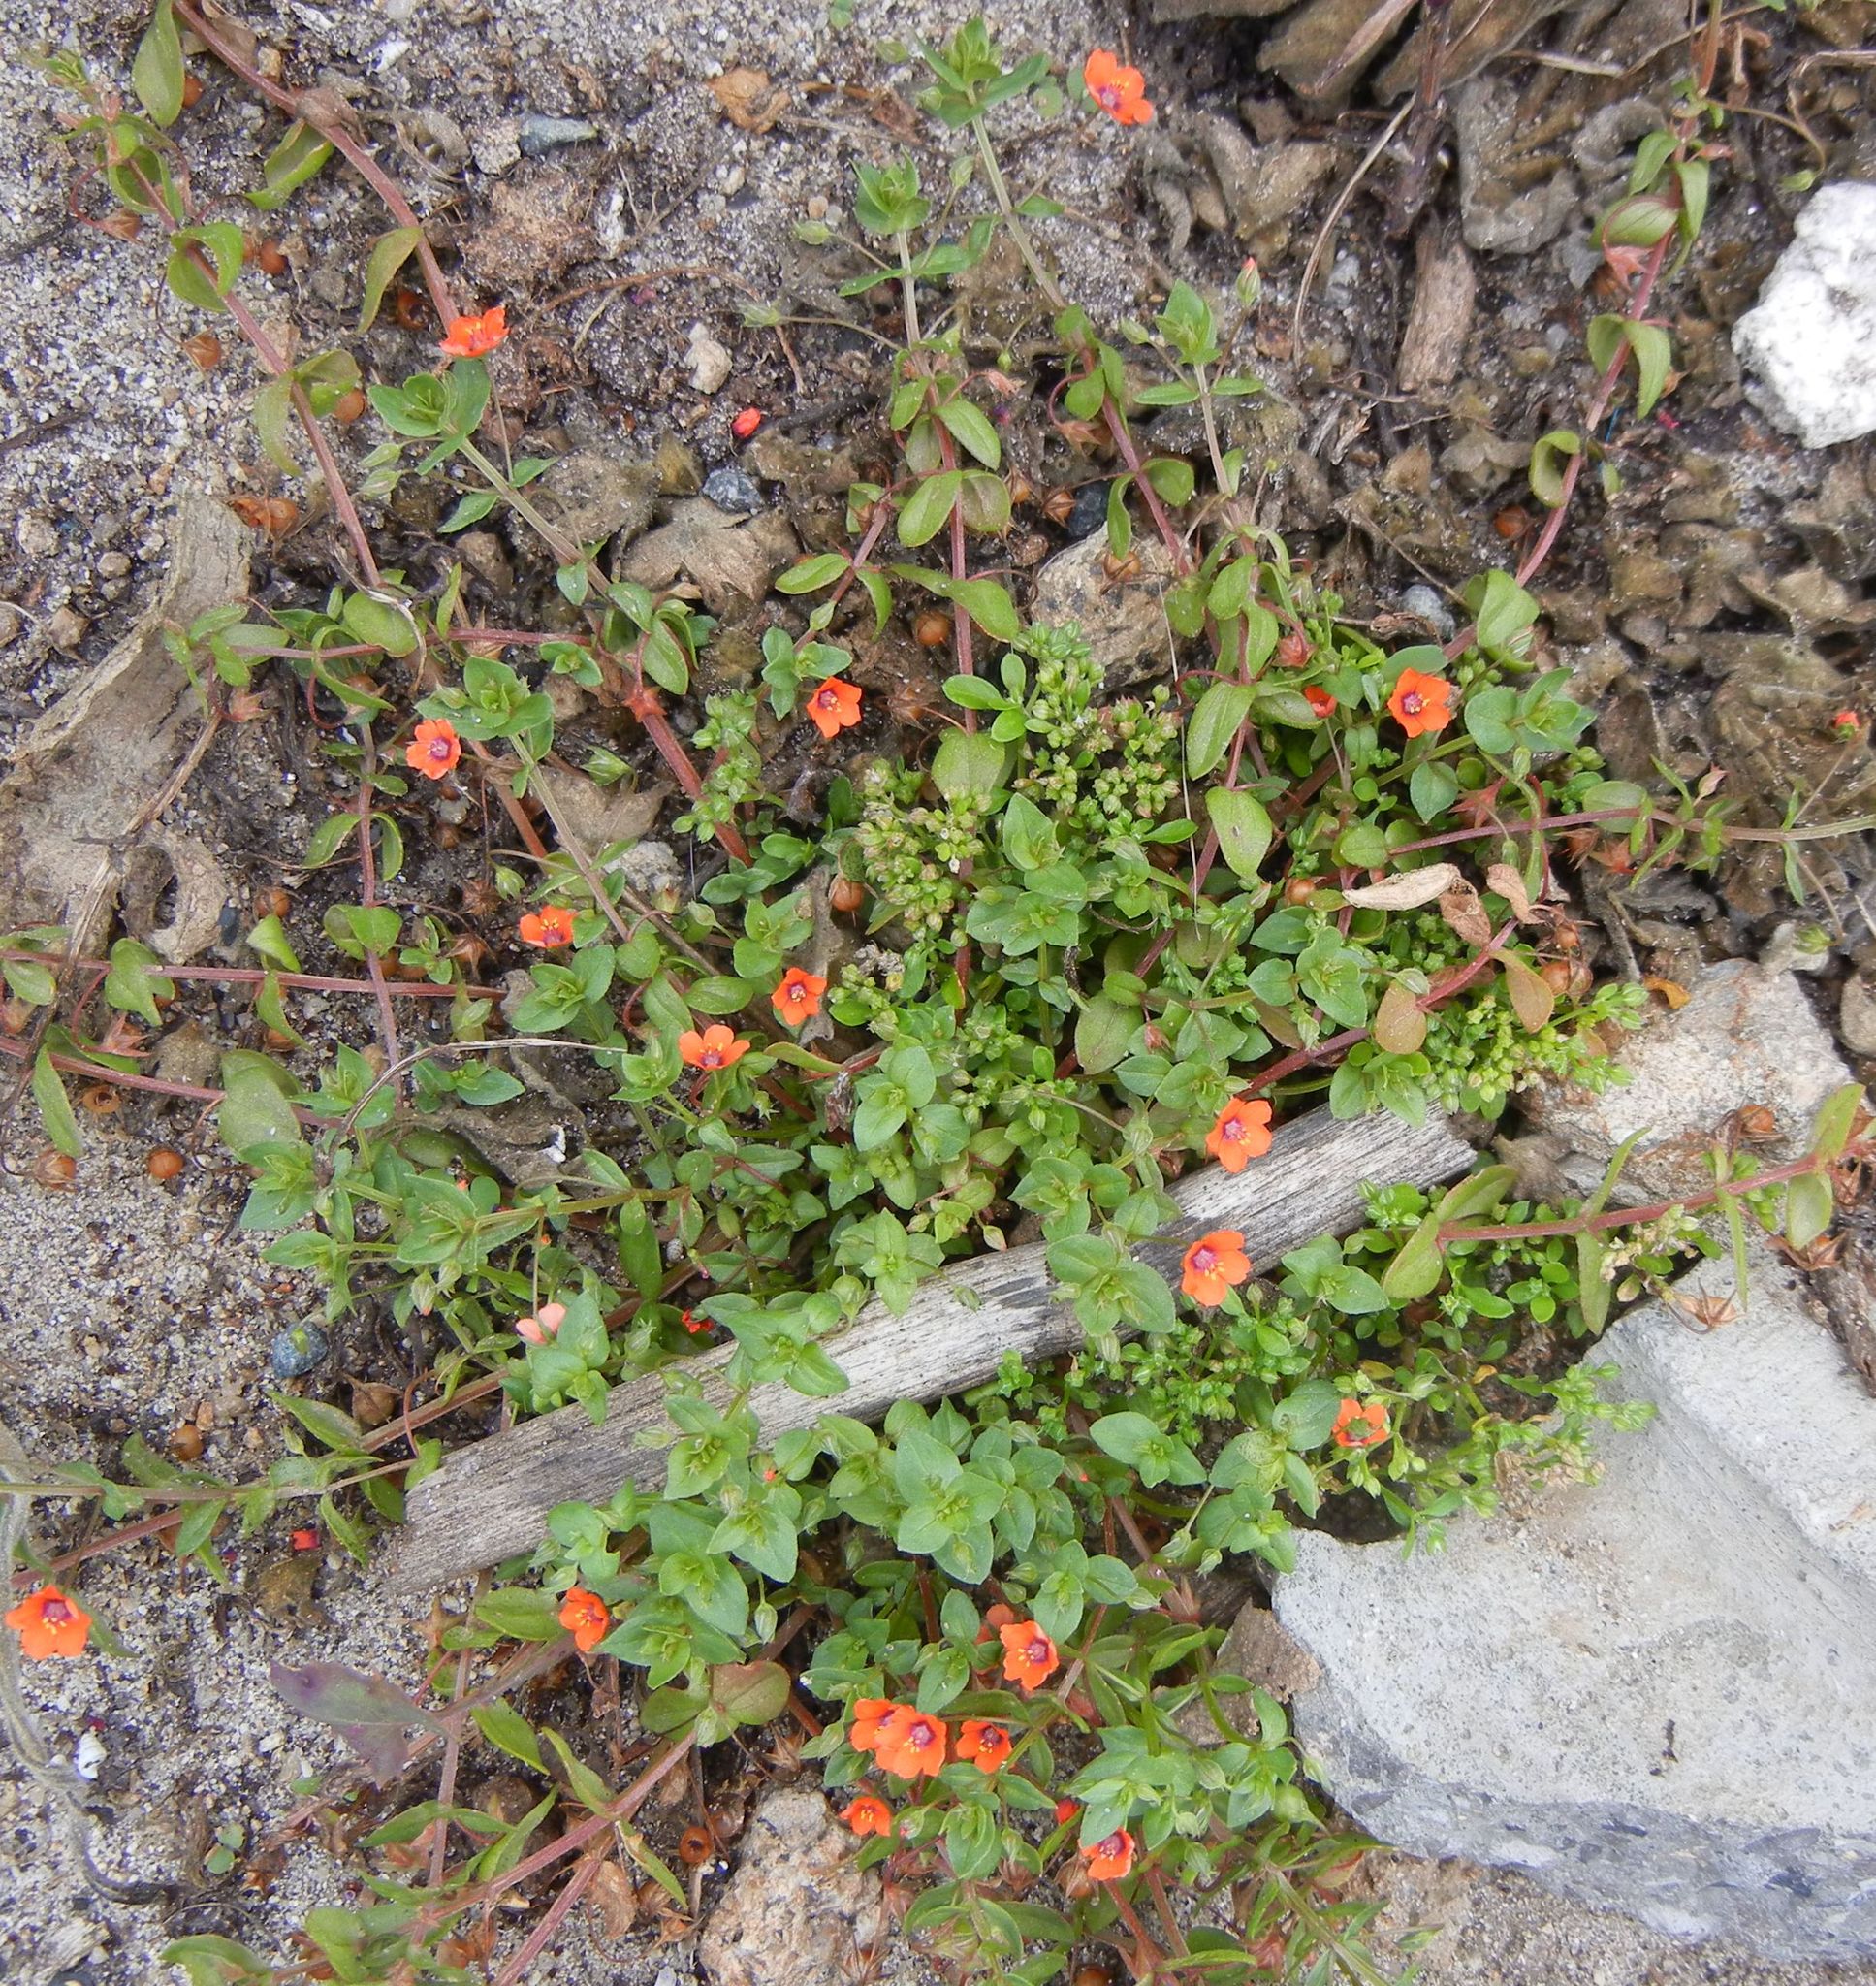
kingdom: Plantae
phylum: Tracheophyta
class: Magnoliopsida
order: Ericales
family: Primulaceae
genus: Lysimachia
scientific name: Lysimachia arvensis
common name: Scarlet pimpernel
